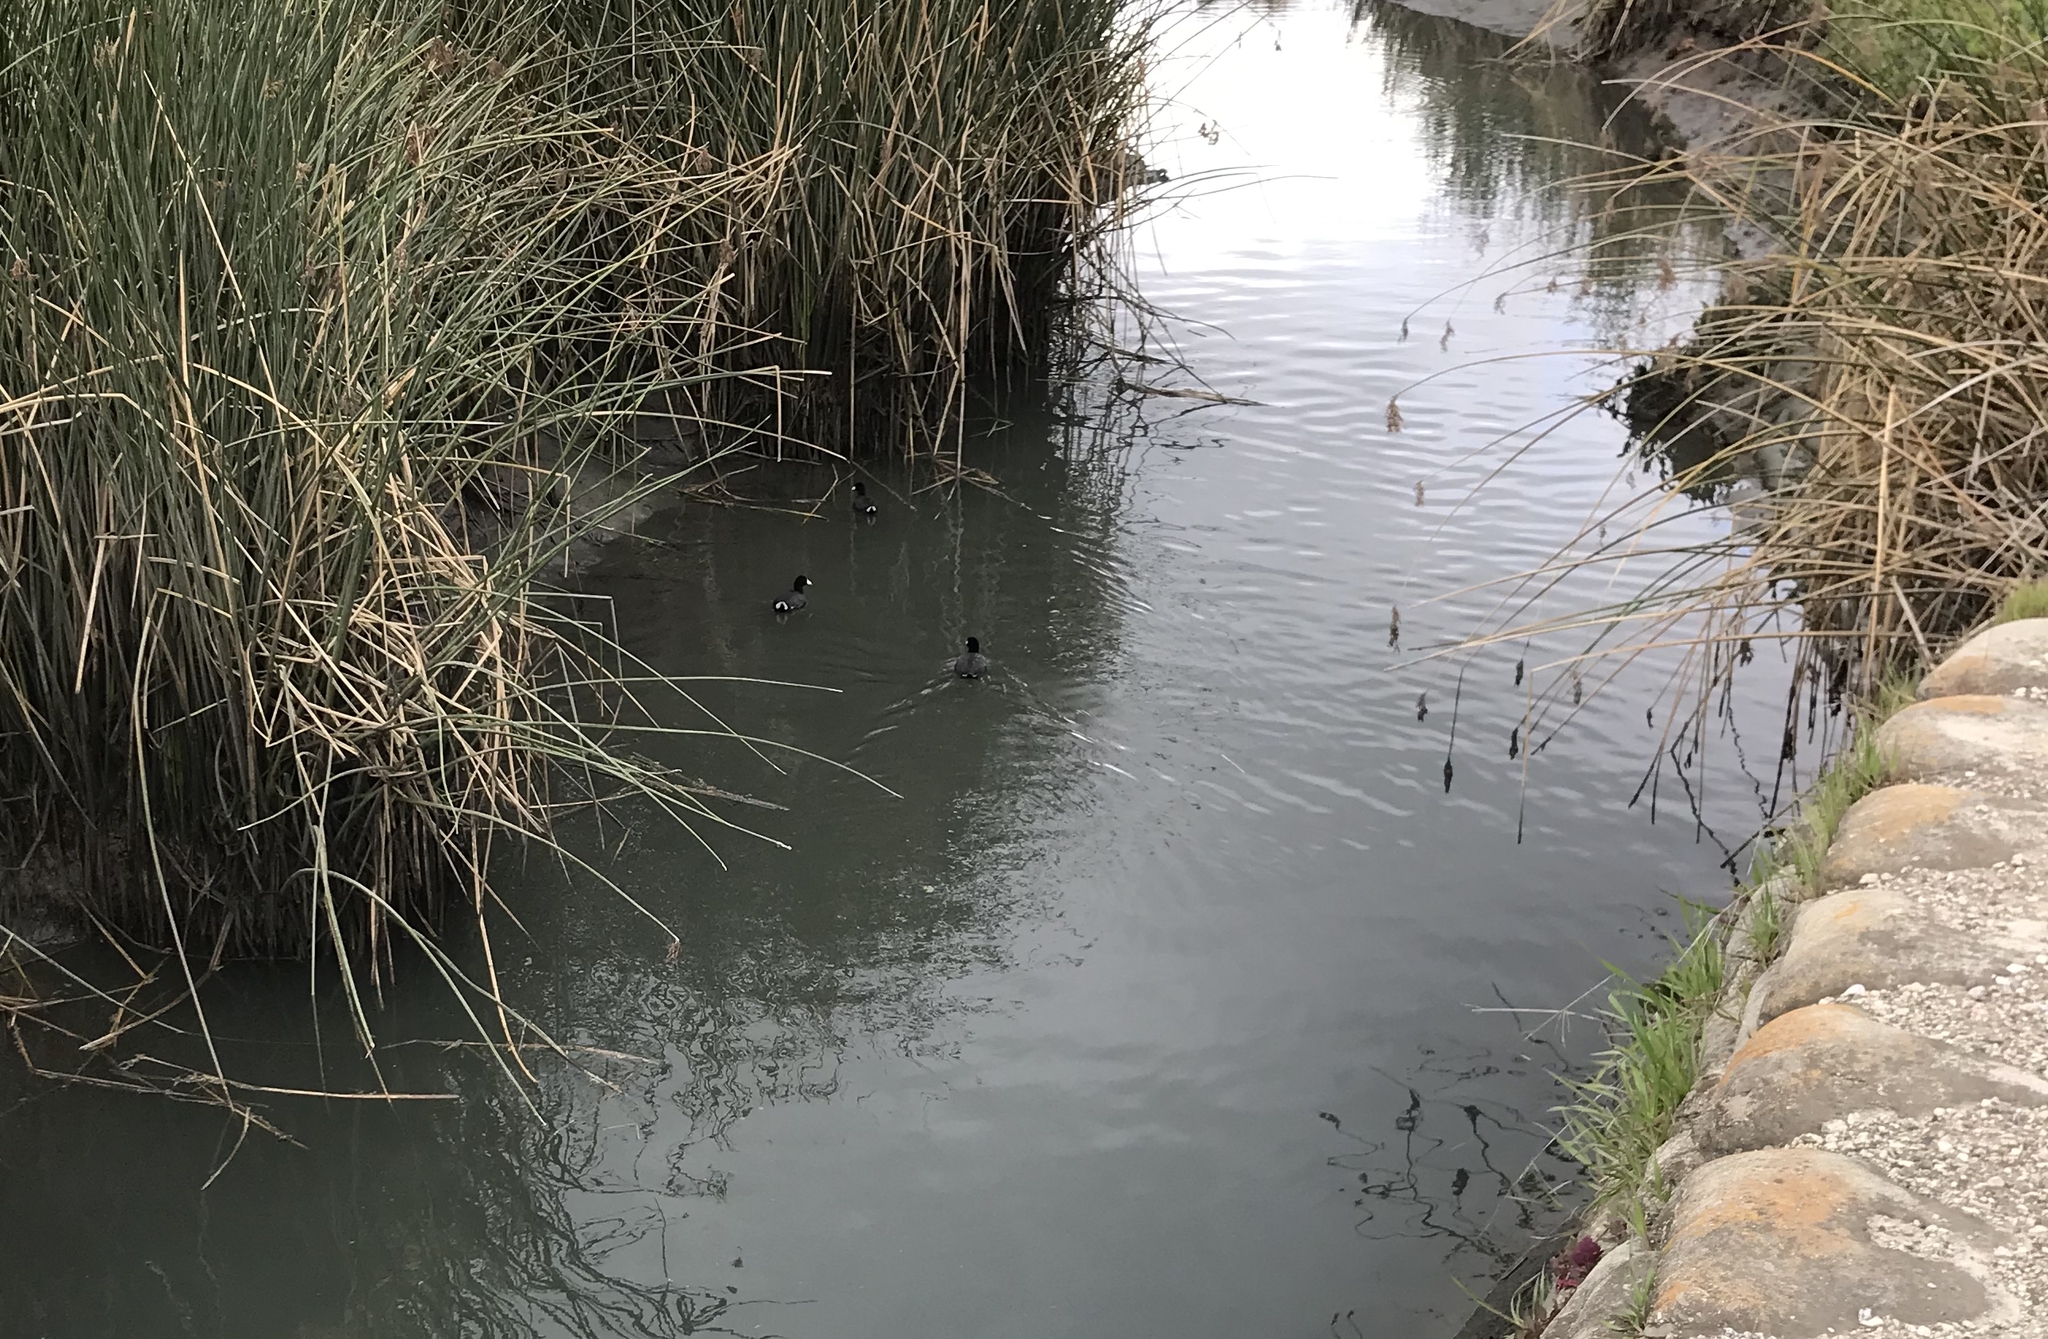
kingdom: Animalia
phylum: Chordata
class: Aves
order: Gruiformes
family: Rallidae
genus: Fulica
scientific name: Fulica americana
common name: American coot
